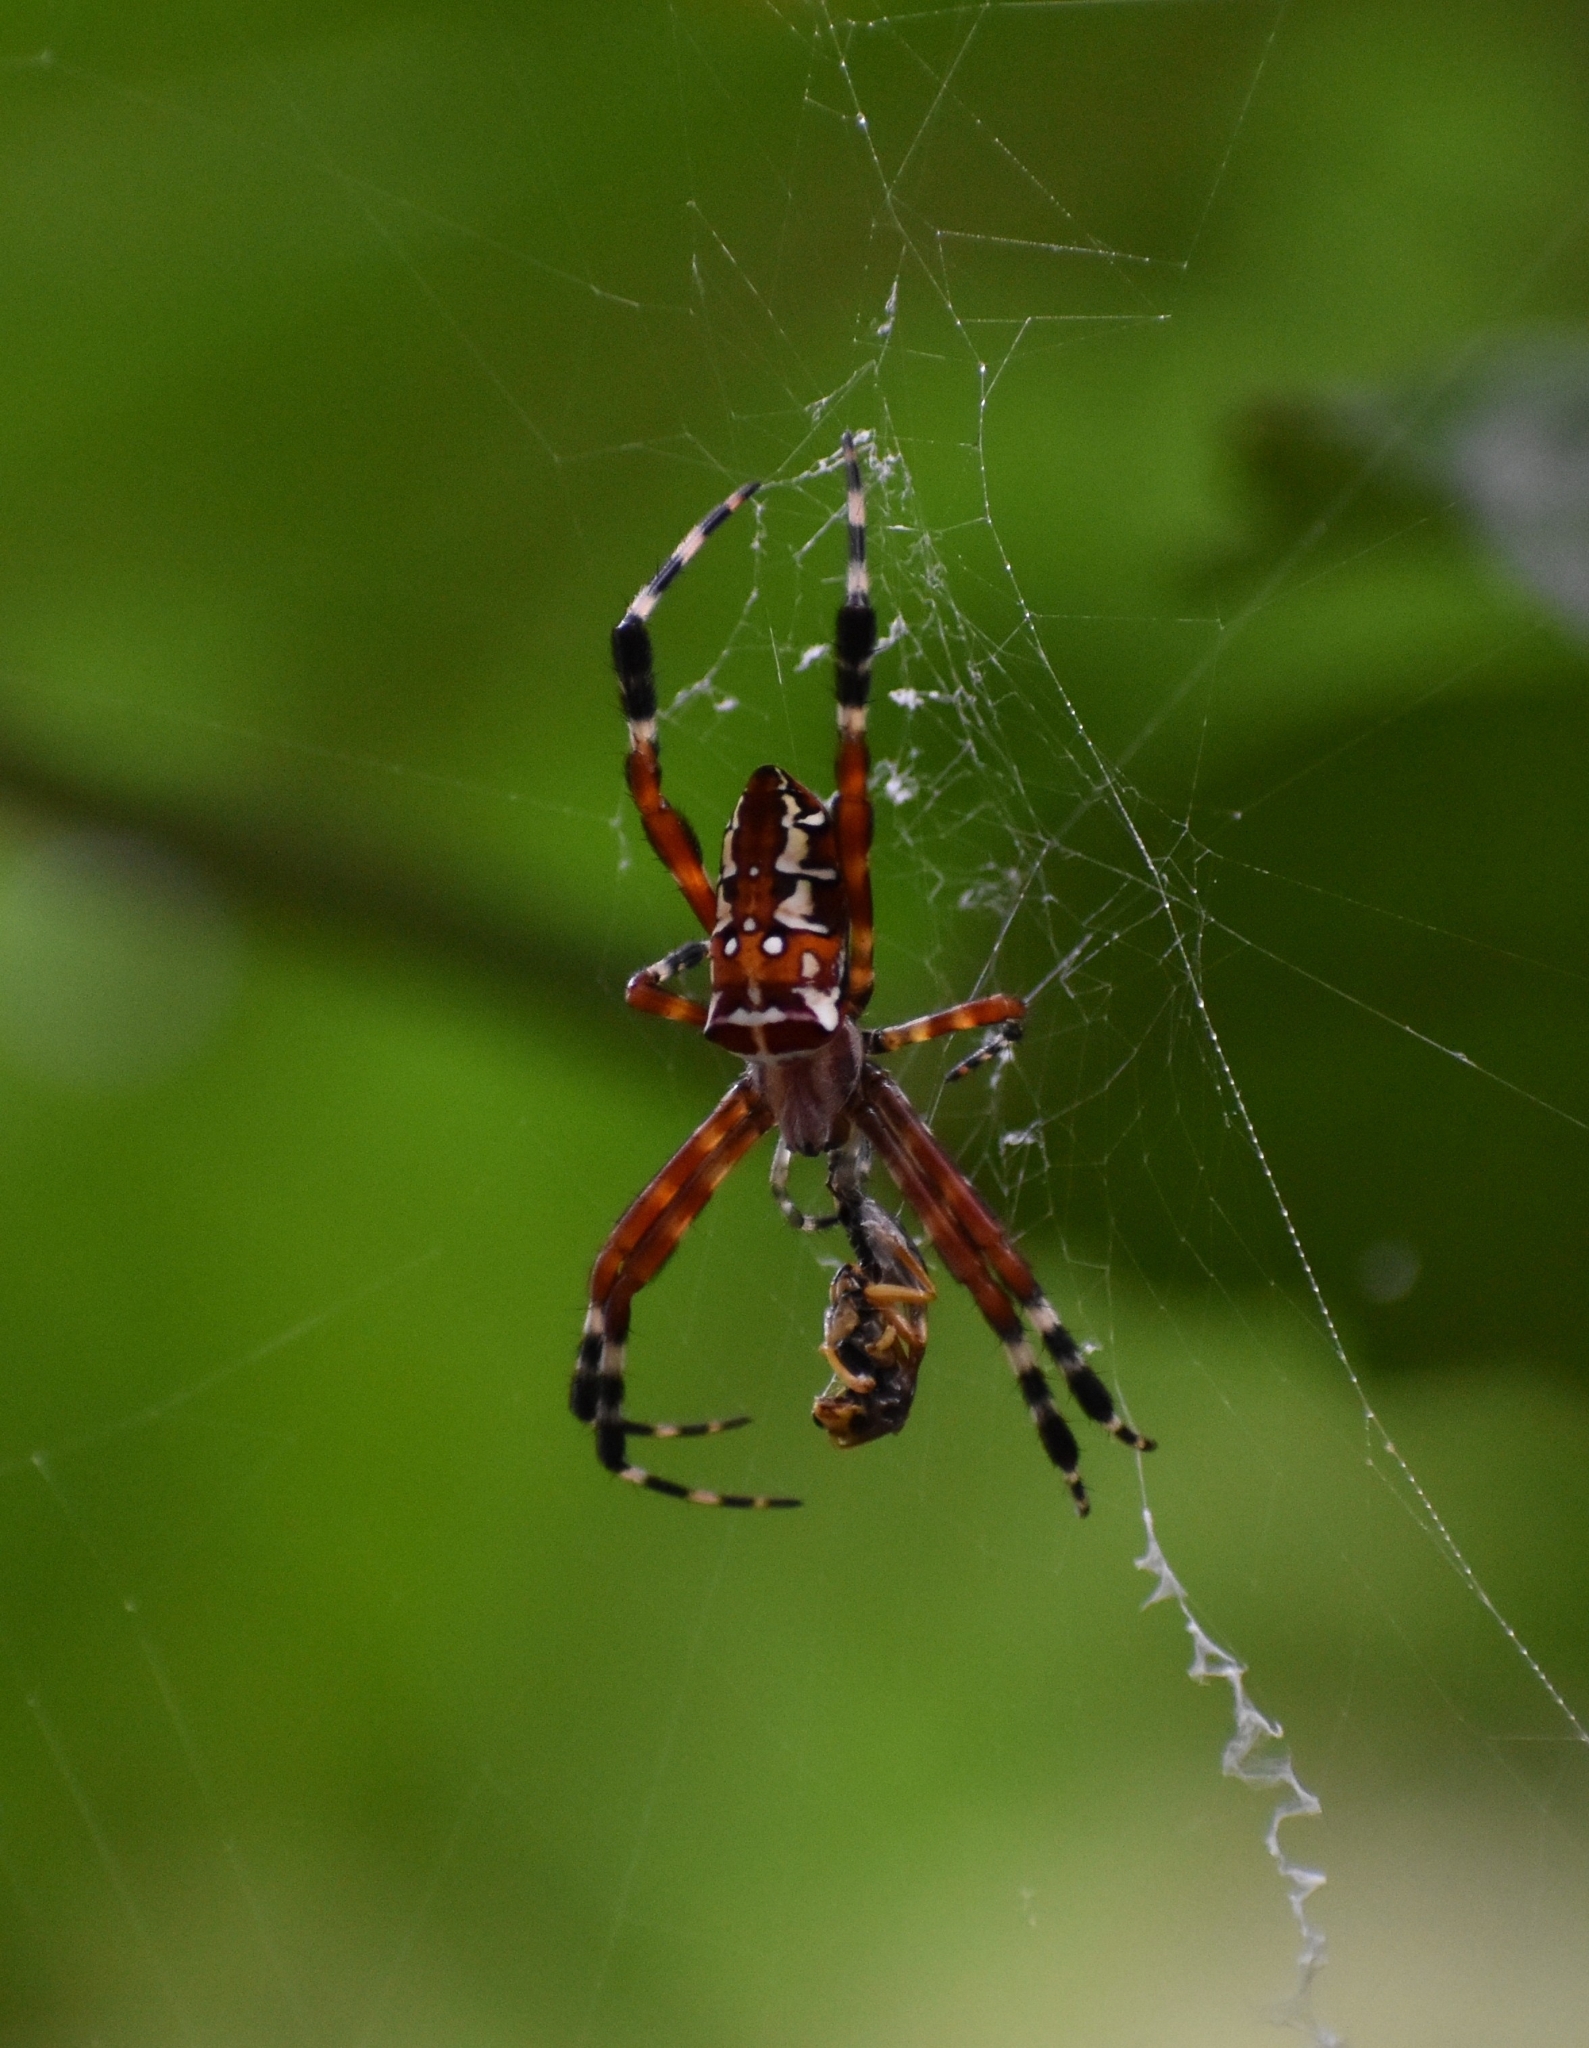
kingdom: Animalia
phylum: Arthropoda
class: Arachnida
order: Araneae
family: Araneidae
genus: Argiope
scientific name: Argiope ocula
